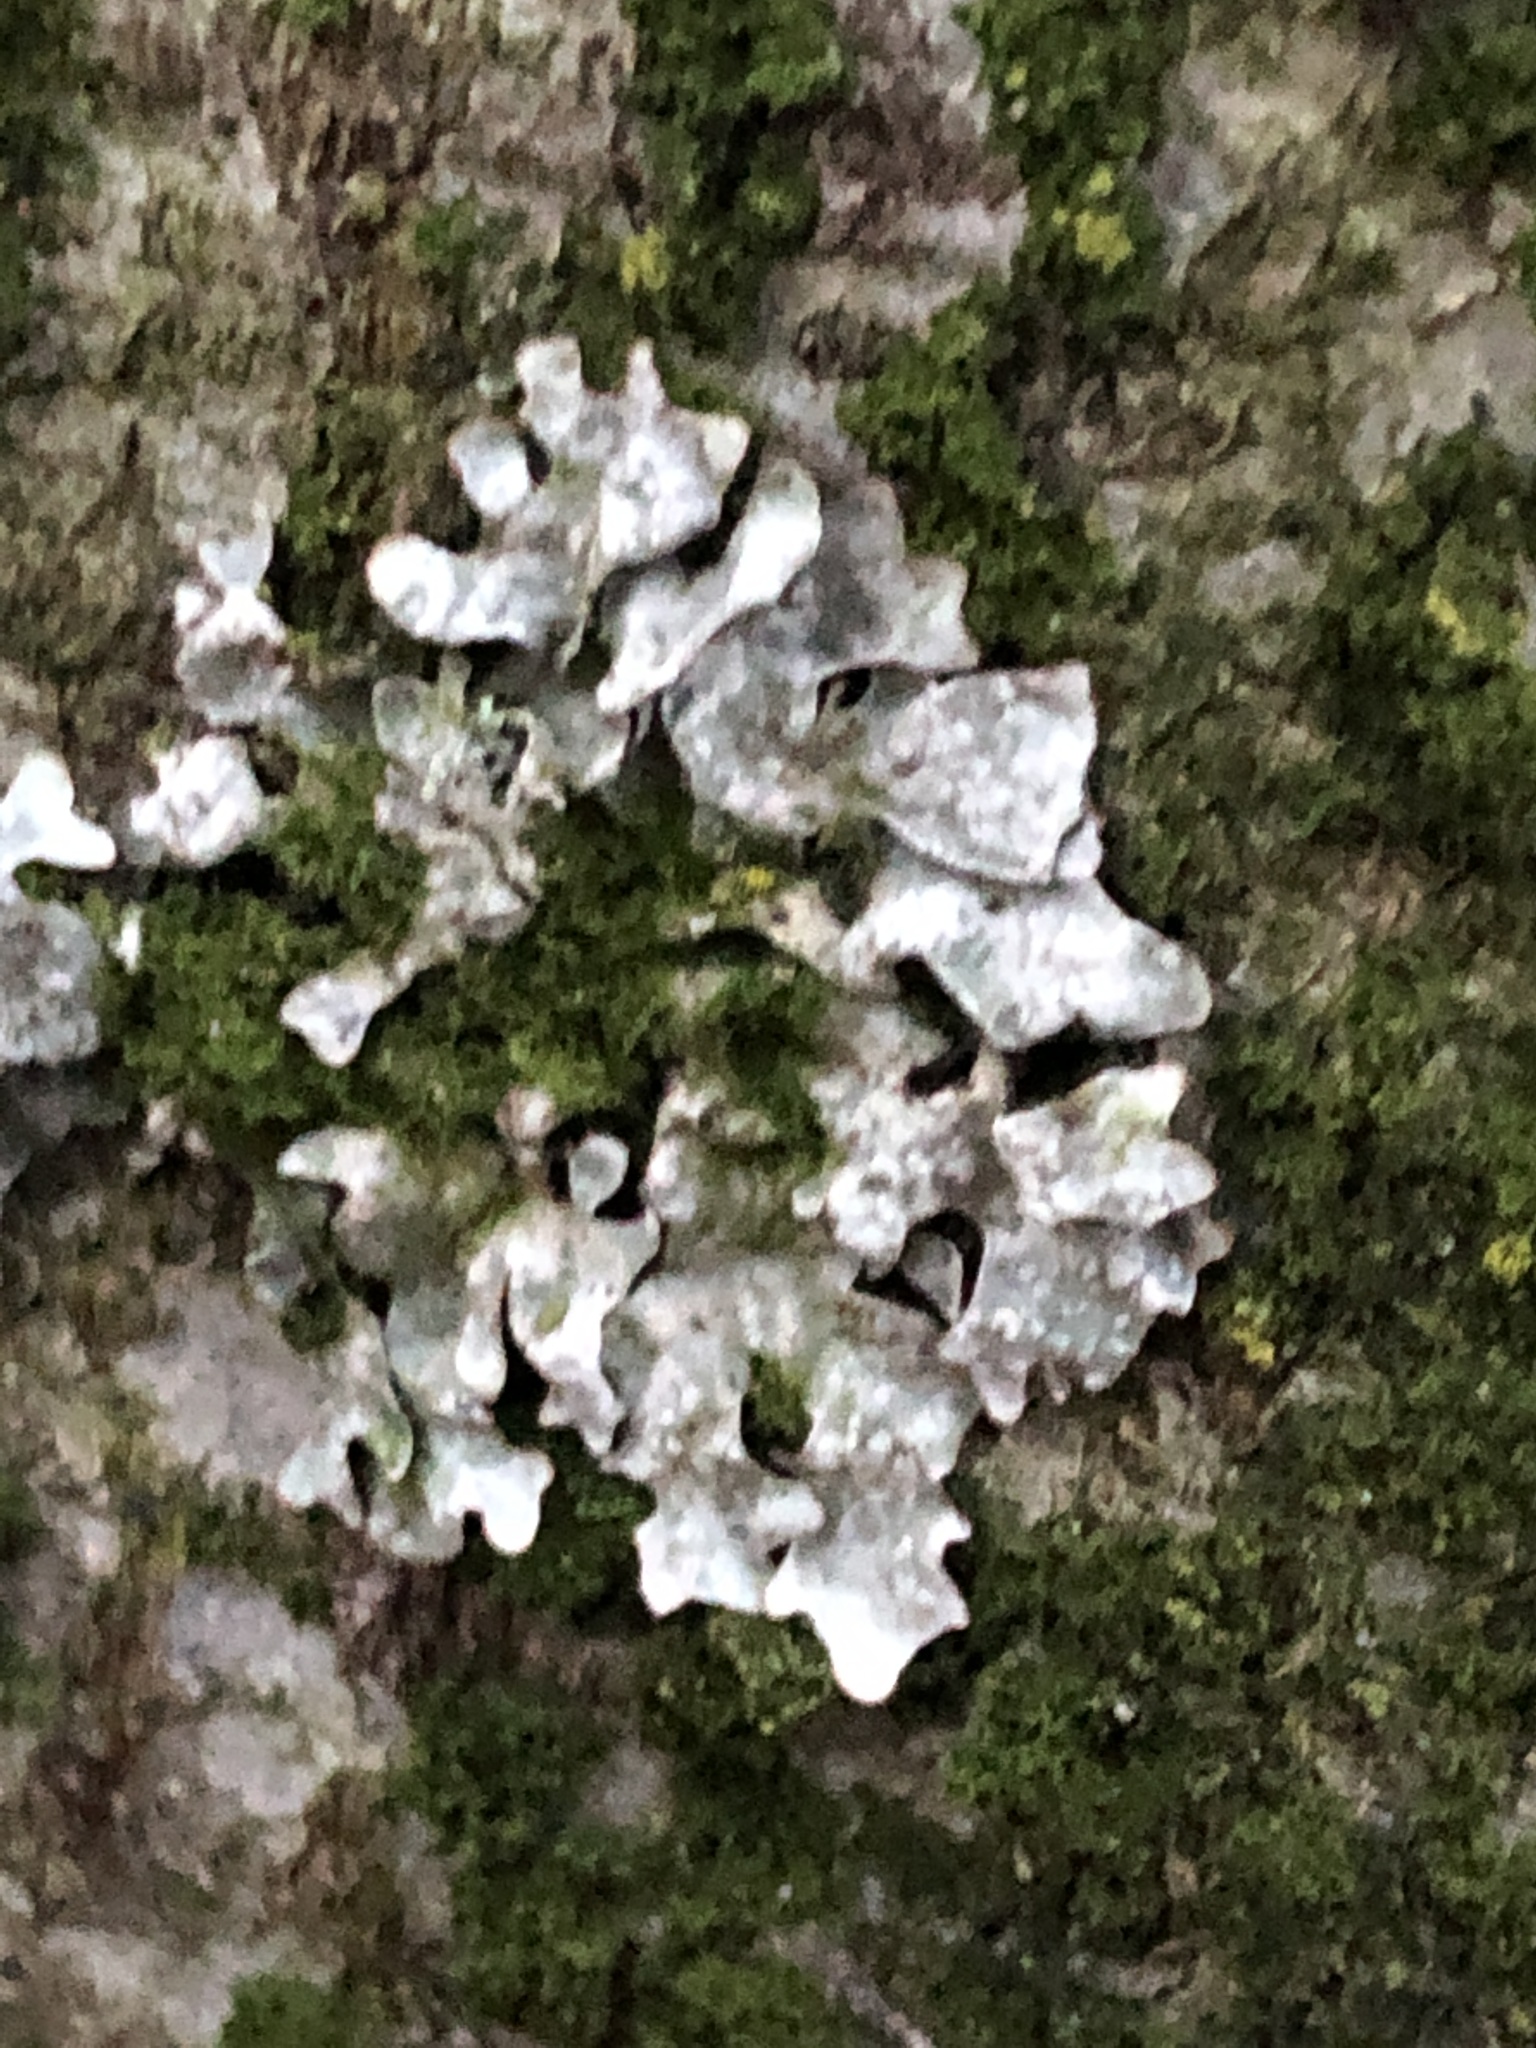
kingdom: Fungi
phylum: Ascomycota
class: Lecanoromycetes
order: Lecanorales
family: Parmeliaceae
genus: Parmelia
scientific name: Parmelia sulcata
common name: Netted shield lichen
